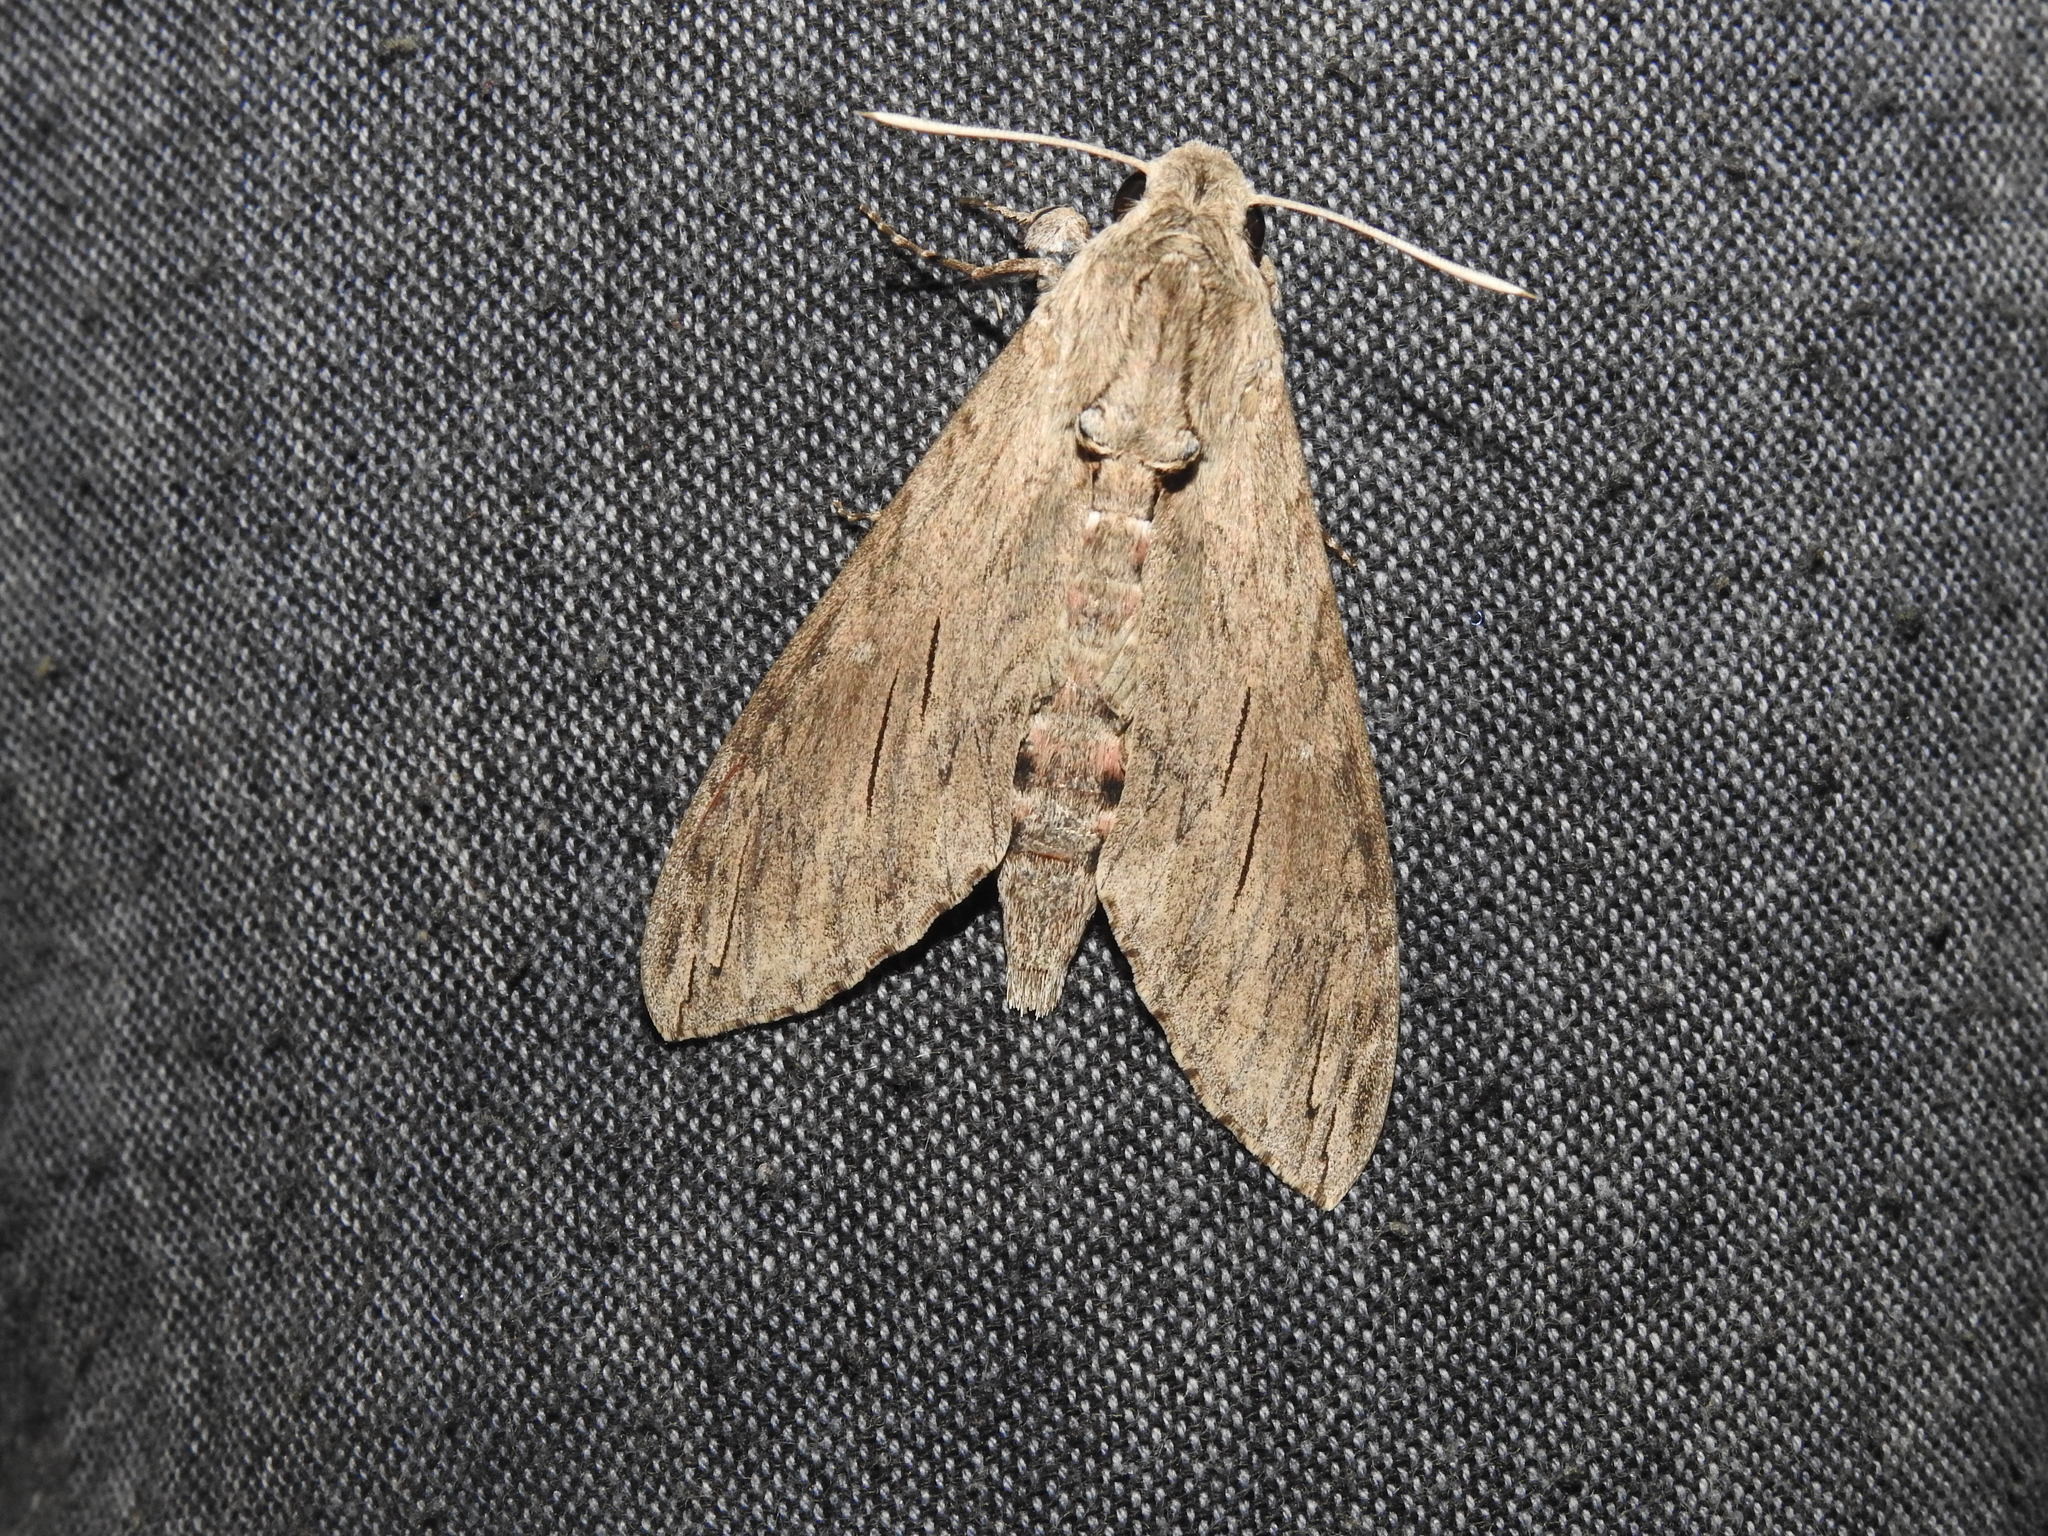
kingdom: Animalia
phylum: Arthropoda
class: Insecta
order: Lepidoptera
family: Sphingidae
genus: Agrius
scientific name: Agrius convolvuli
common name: Convolvulus hawkmoth
